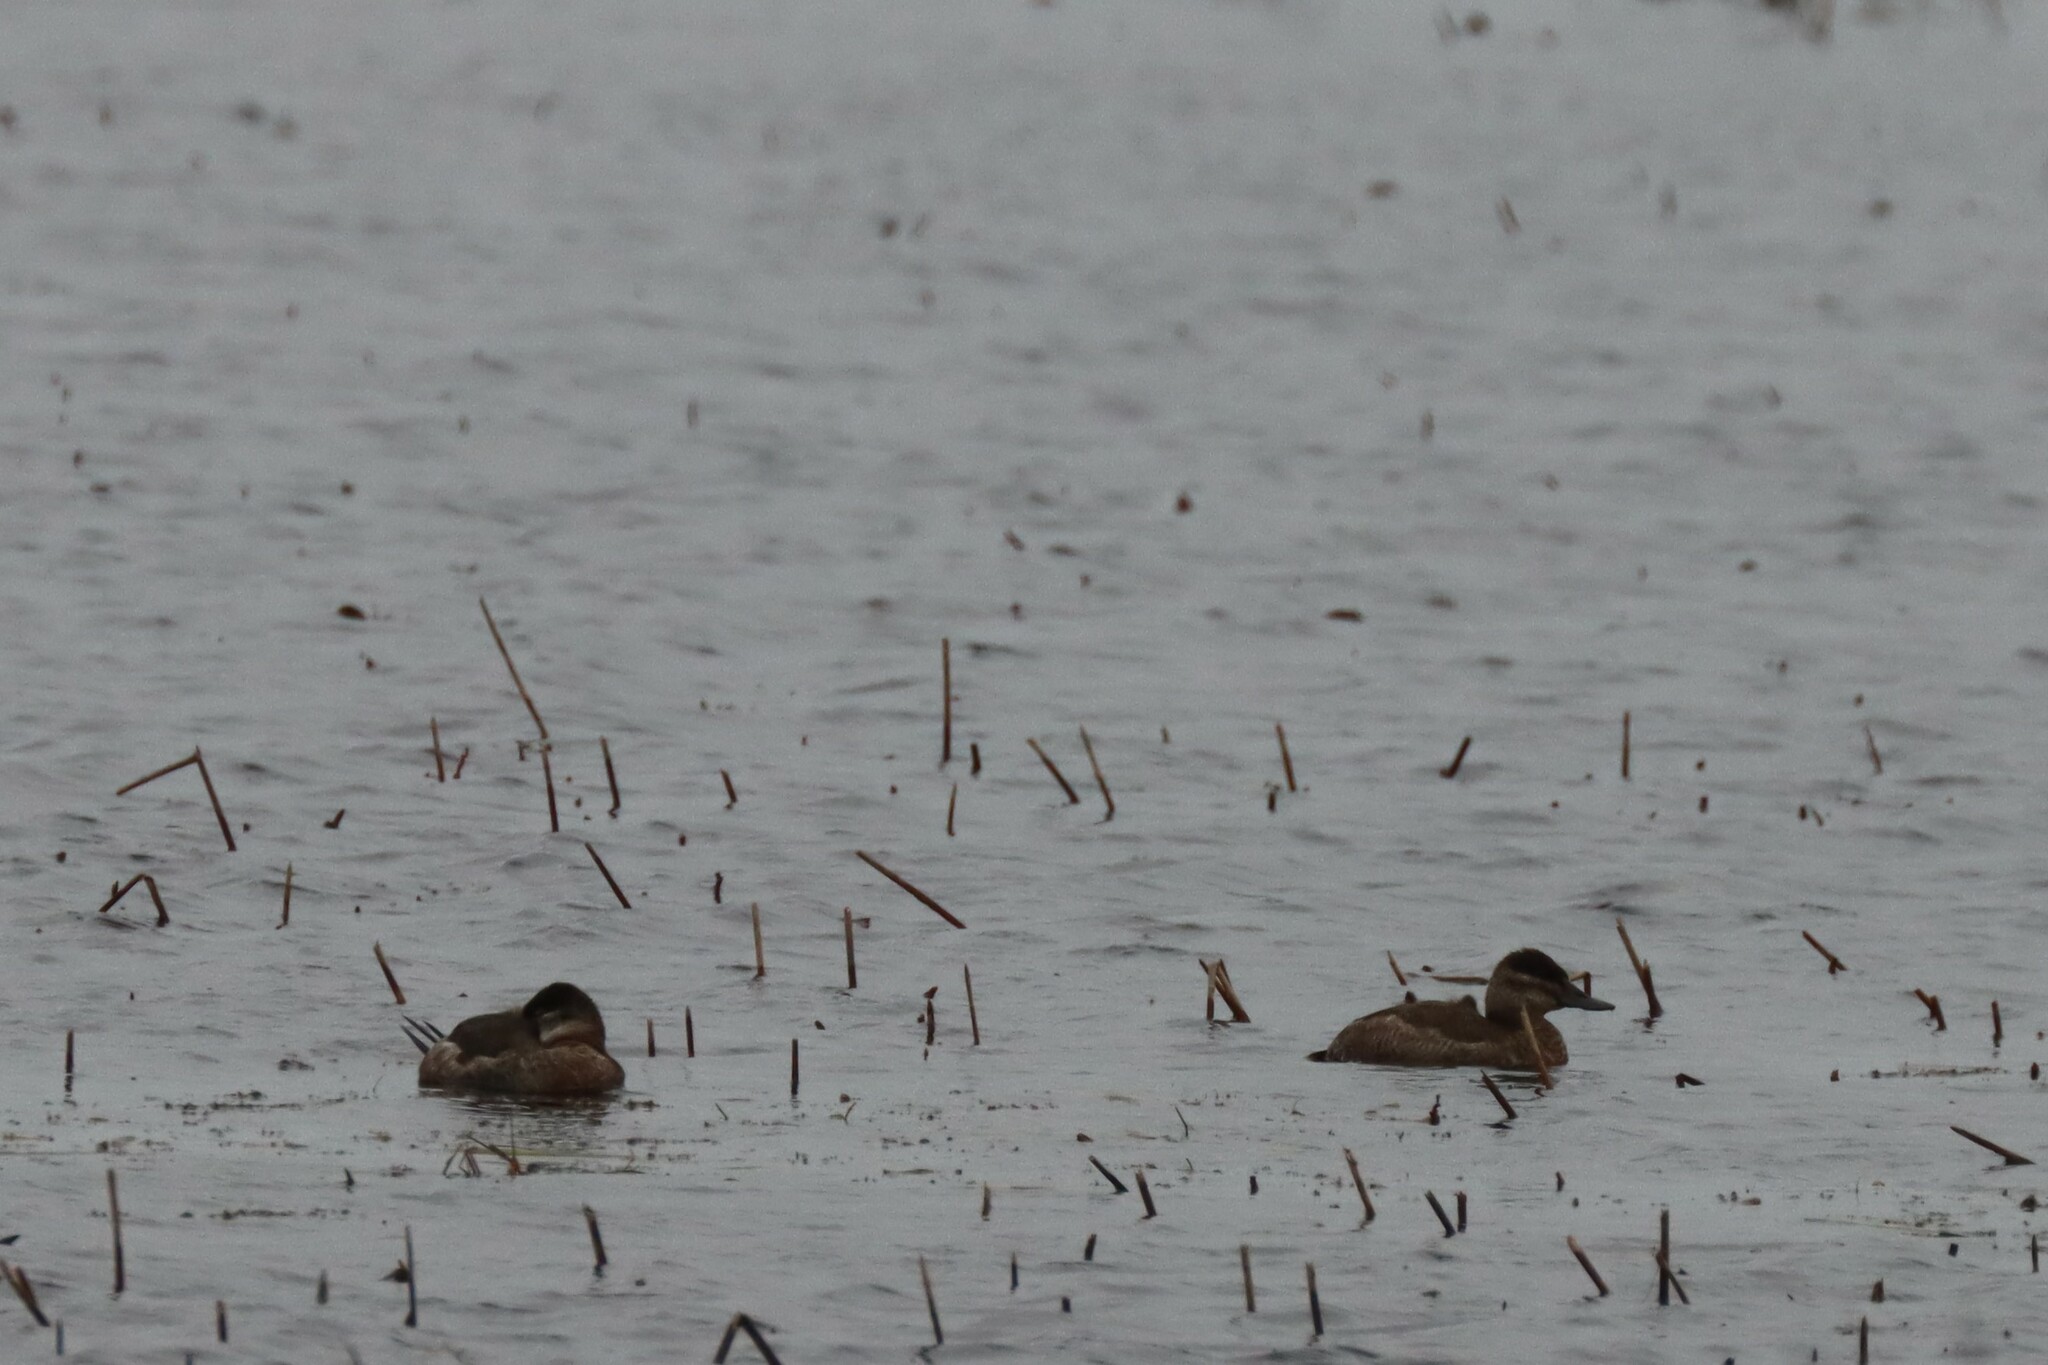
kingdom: Animalia
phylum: Chordata
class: Aves
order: Anseriformes
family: Anatidae
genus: Oxyura
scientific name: Oxyura jamaicensis
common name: Ruddy duck
